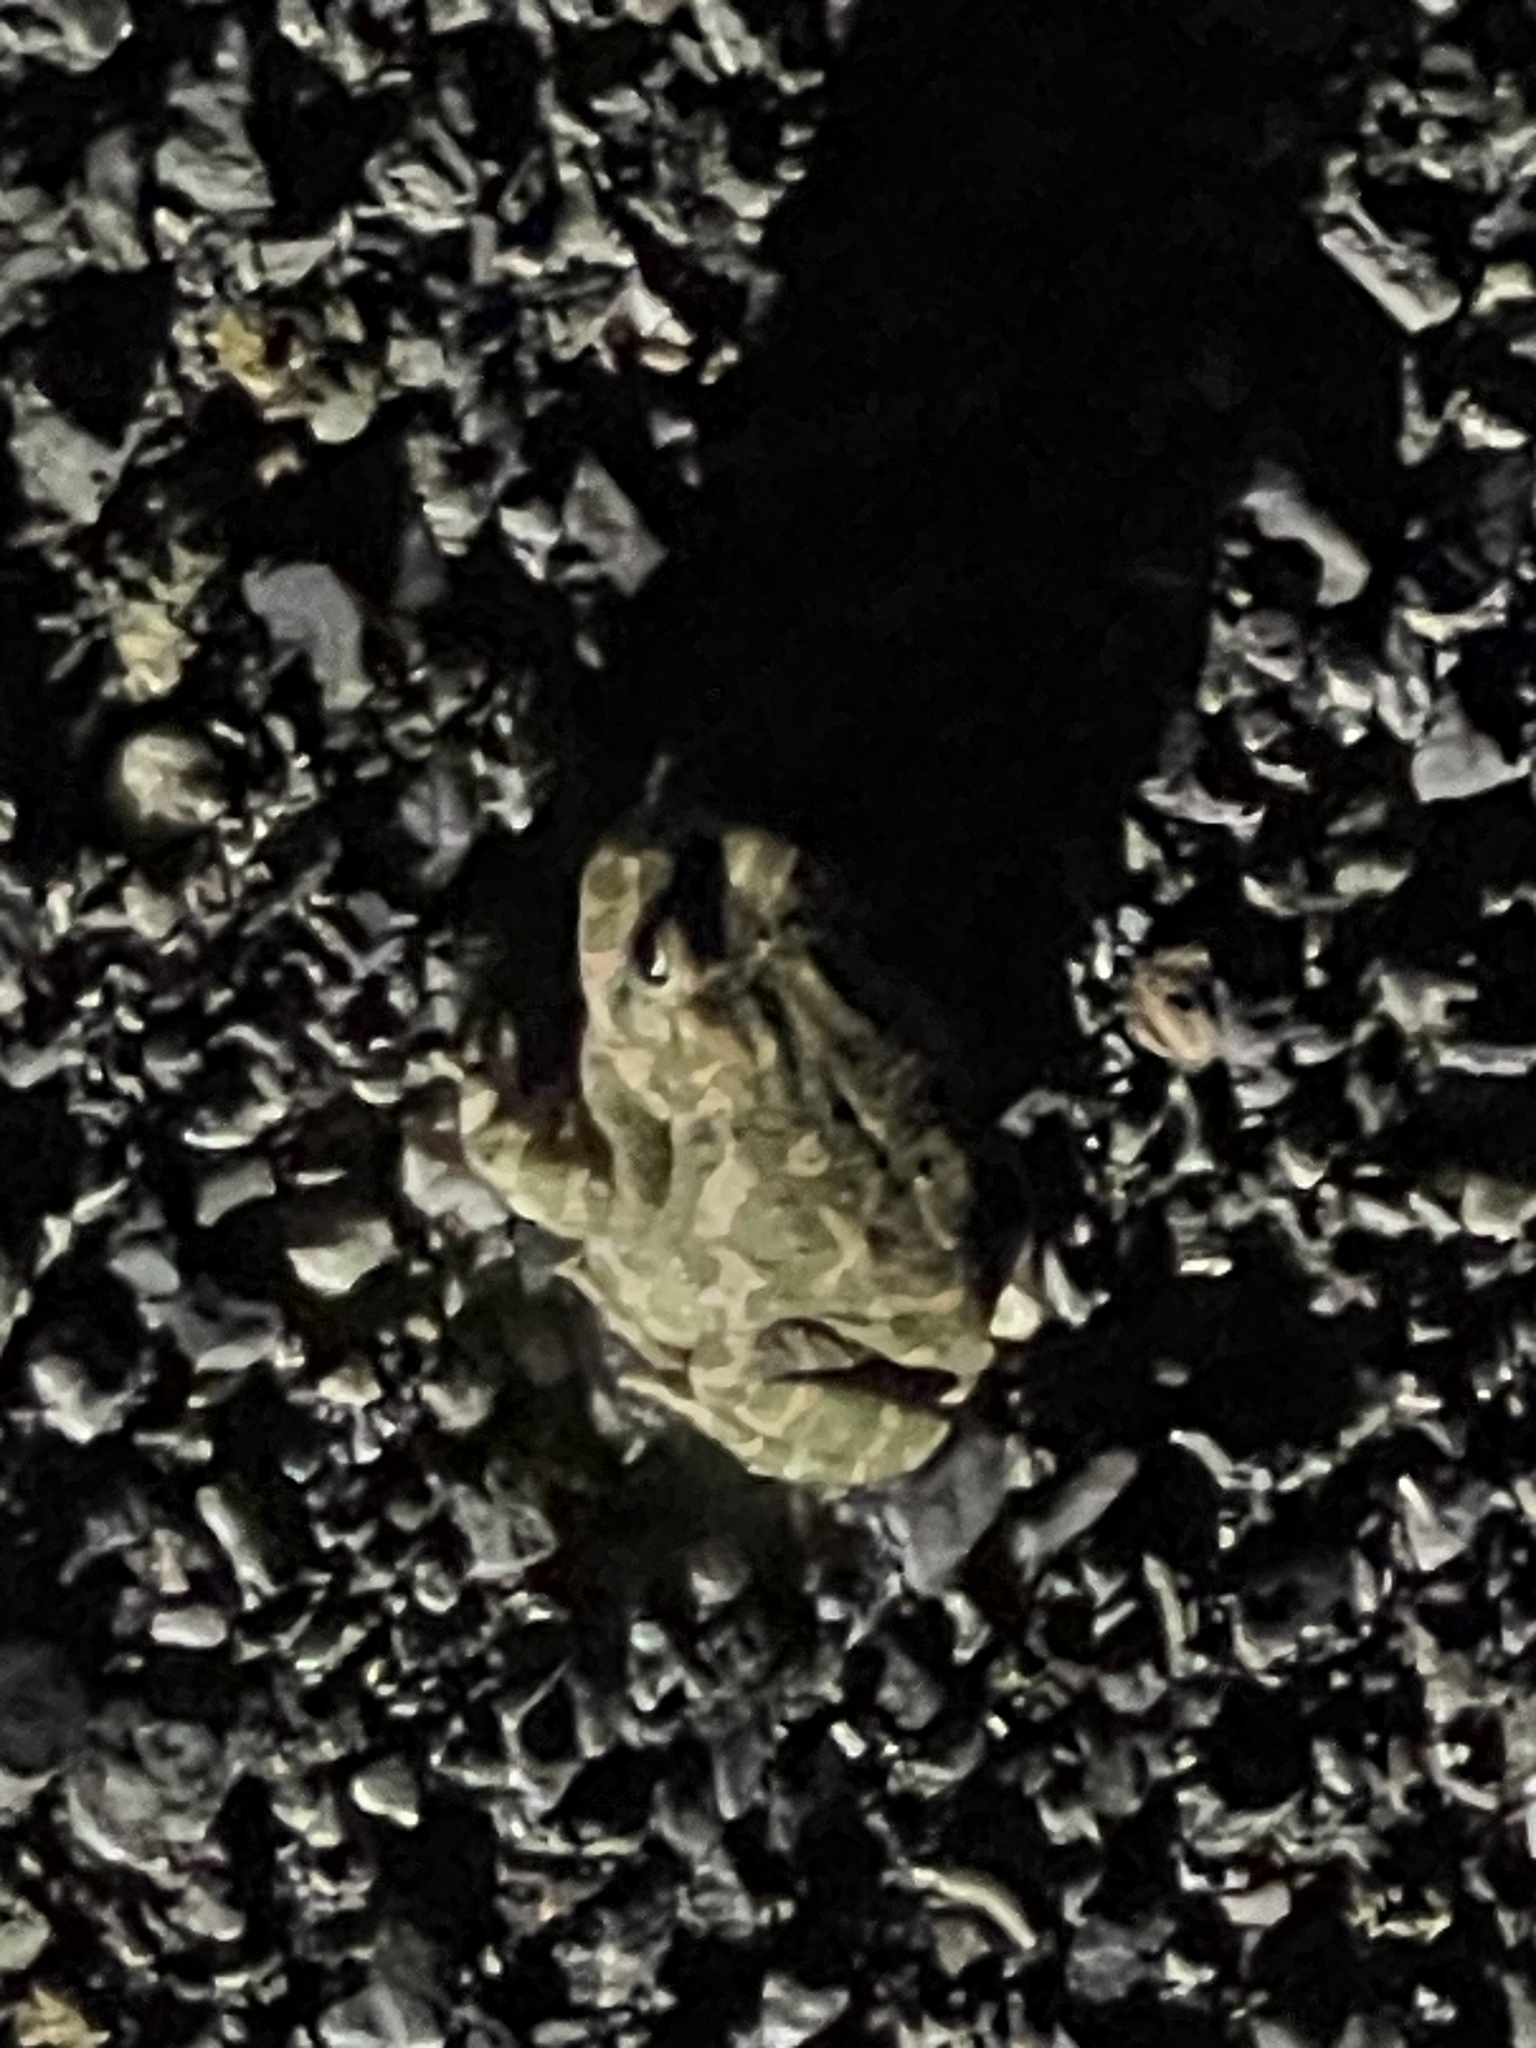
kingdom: Animalia
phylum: Chordata
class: Amphibia
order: Anura
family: Bufonidae
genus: Bufotes
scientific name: Bufotes viridis
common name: European green toad
